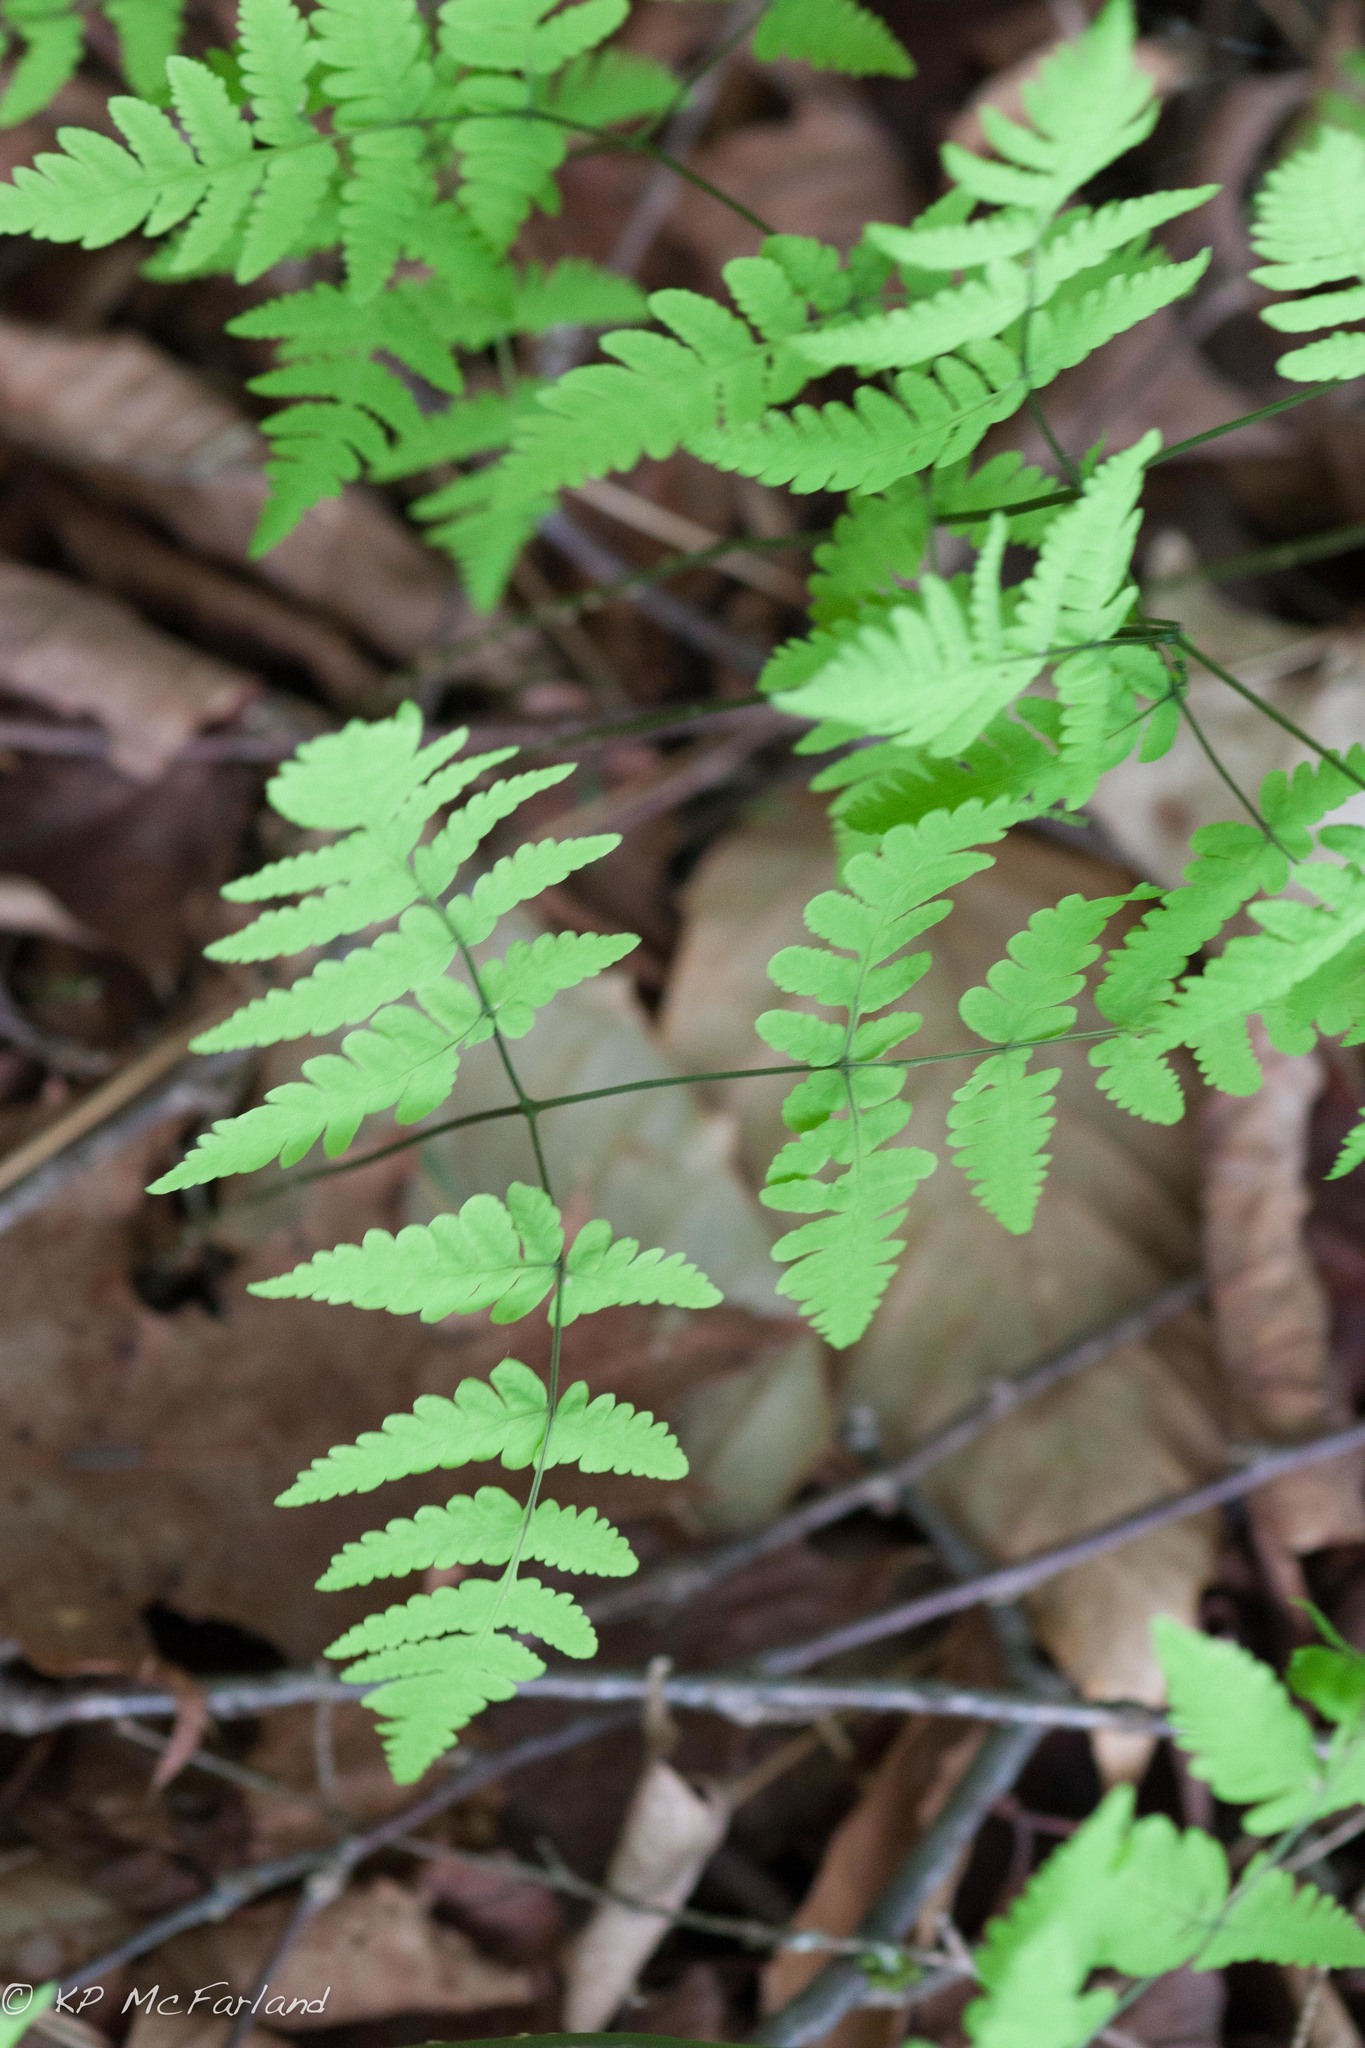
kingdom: Plantae
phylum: Tracheophyta
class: Polypodiopsida
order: Polypodiales
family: Cystopteridaceae
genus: Gymnocarpium
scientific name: Gymnocarpium dryopteris
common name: Oak fern
